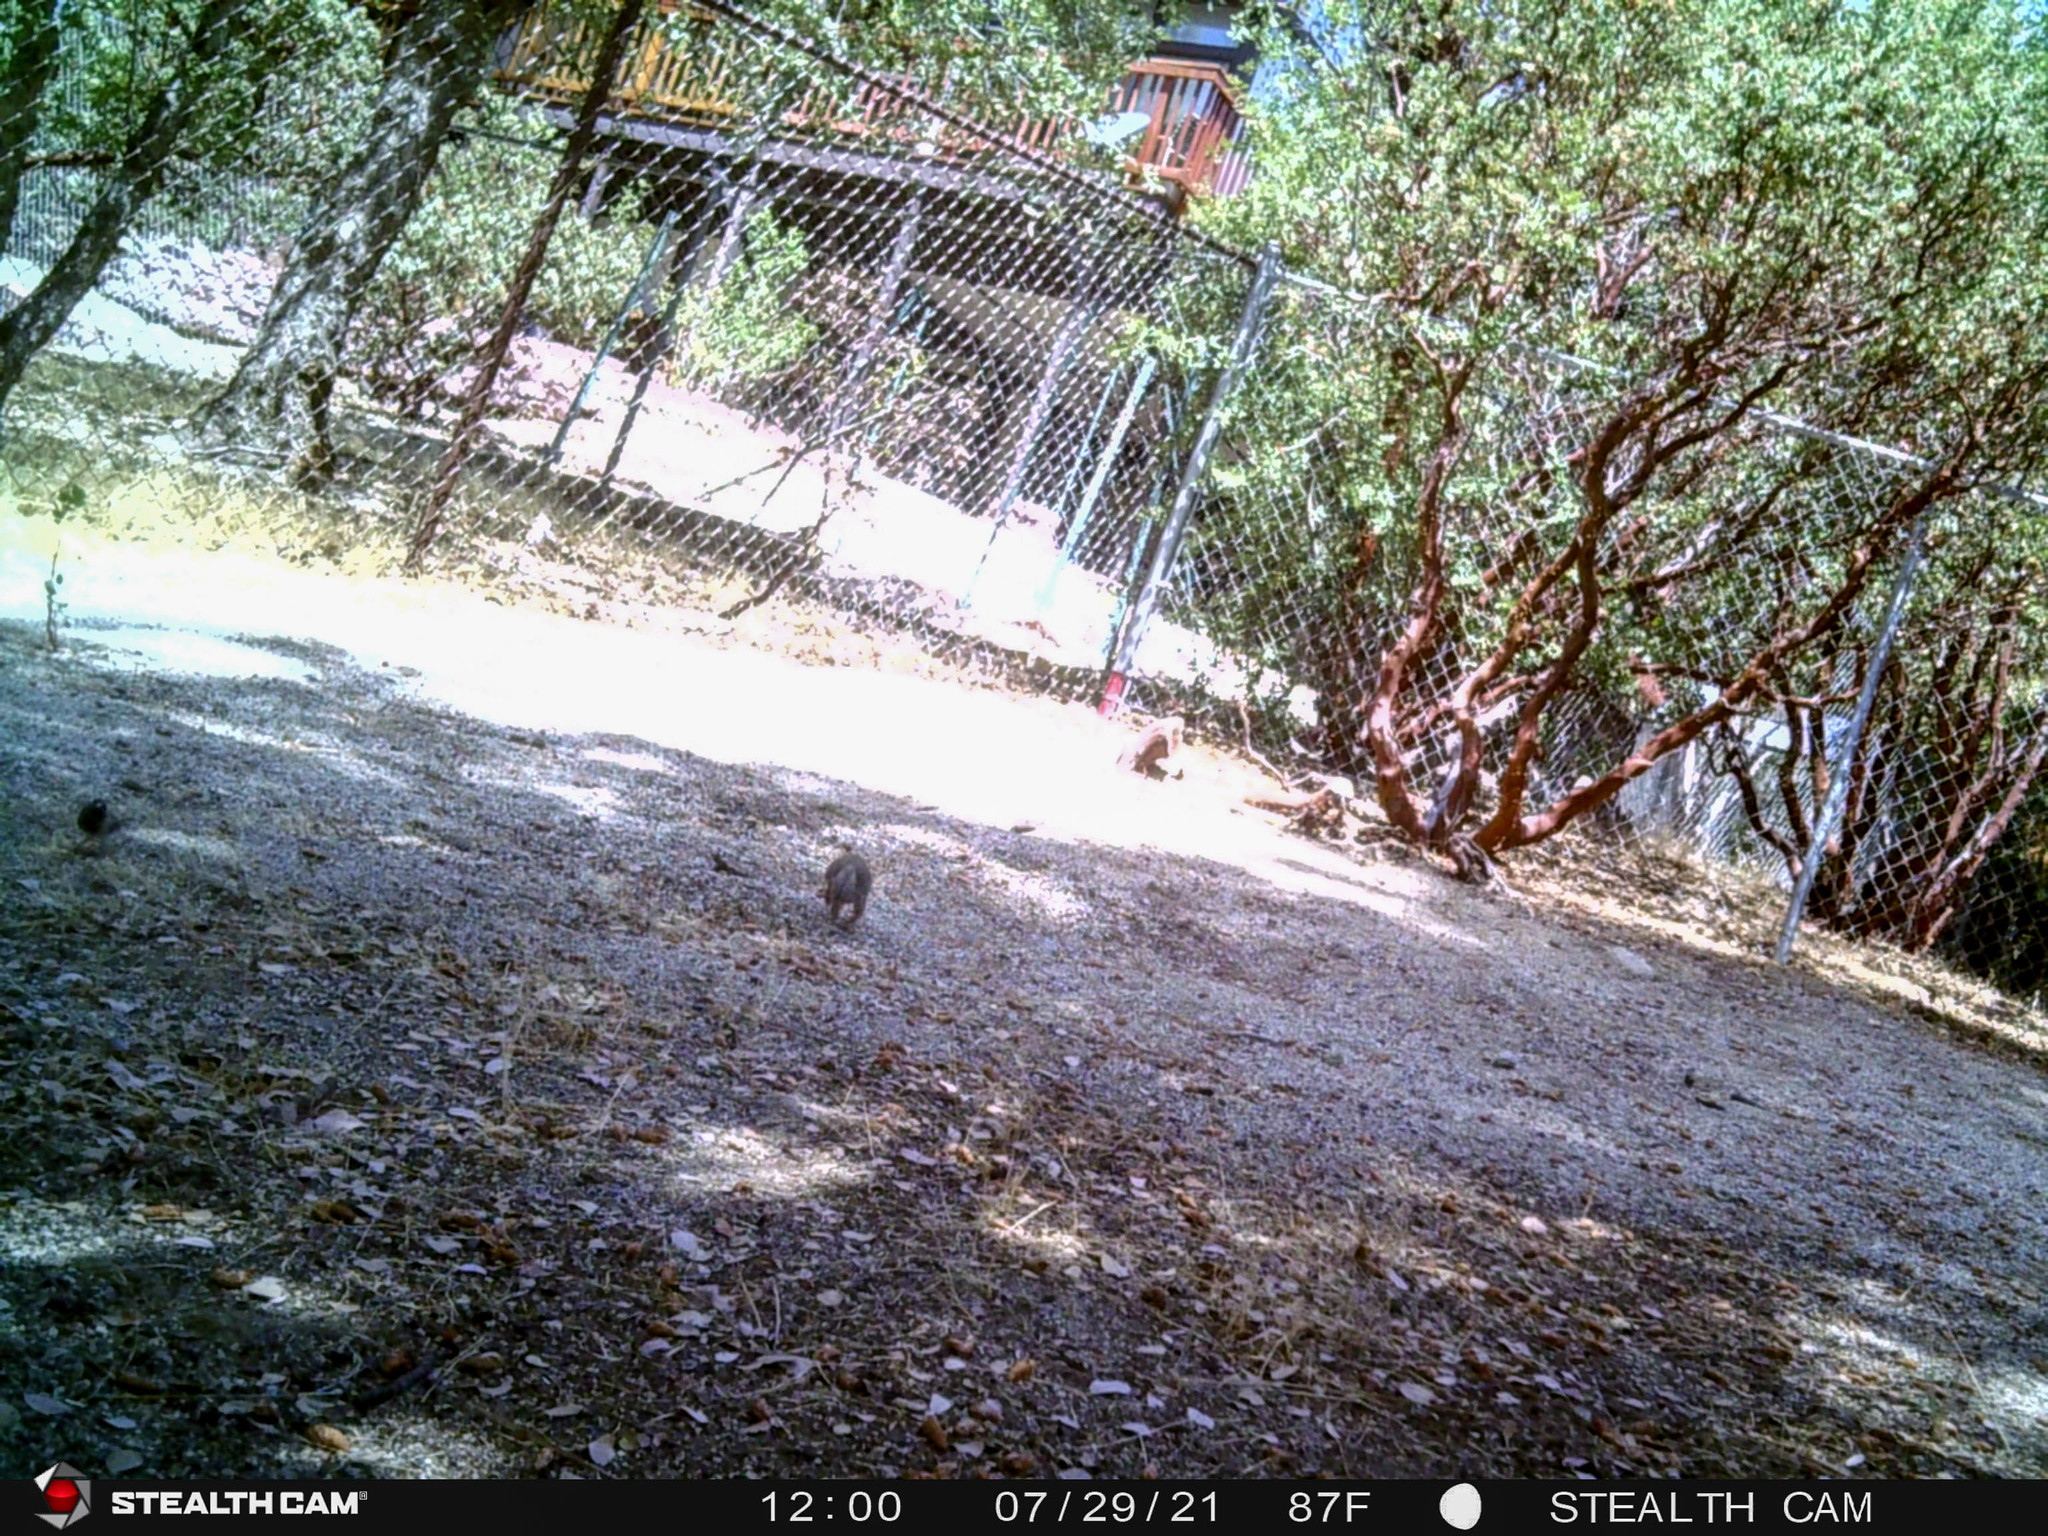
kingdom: Animalia
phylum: Chordata
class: Mammalia
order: Rodentia
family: Sciuridae
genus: Otospermophilus
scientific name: Otospermophilus beecheyi
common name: California ground squirrel
